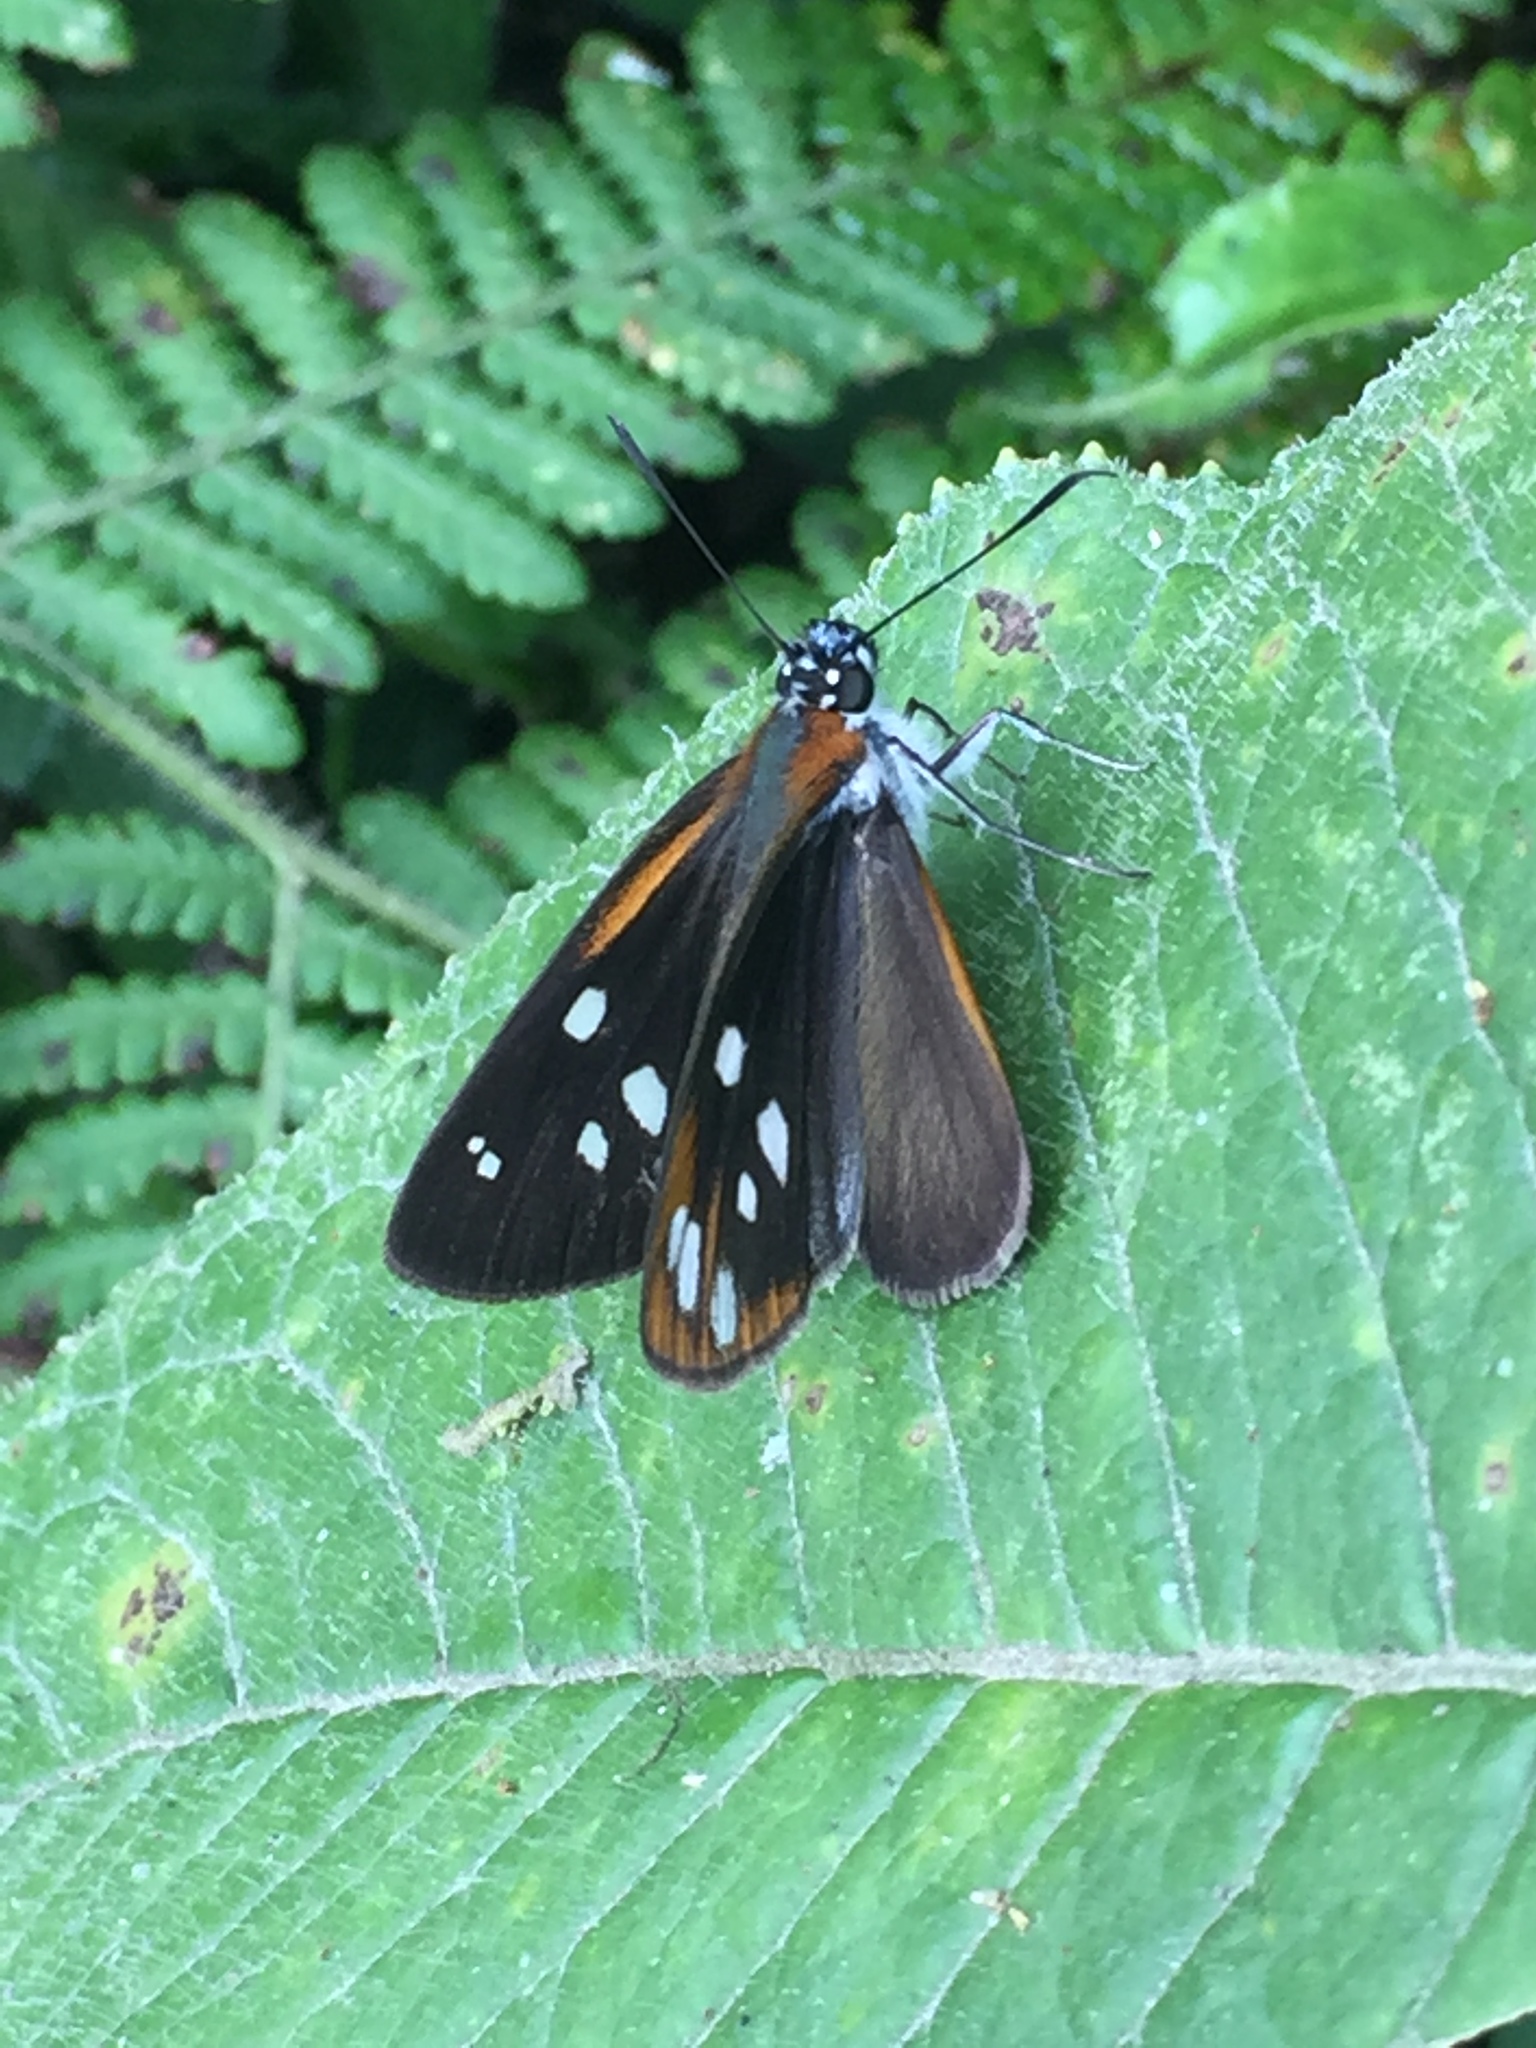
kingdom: Animalia
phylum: Arthropoda
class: Insecta
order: Lepidoptera
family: Hesperiidae
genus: Corra
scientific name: Corra
